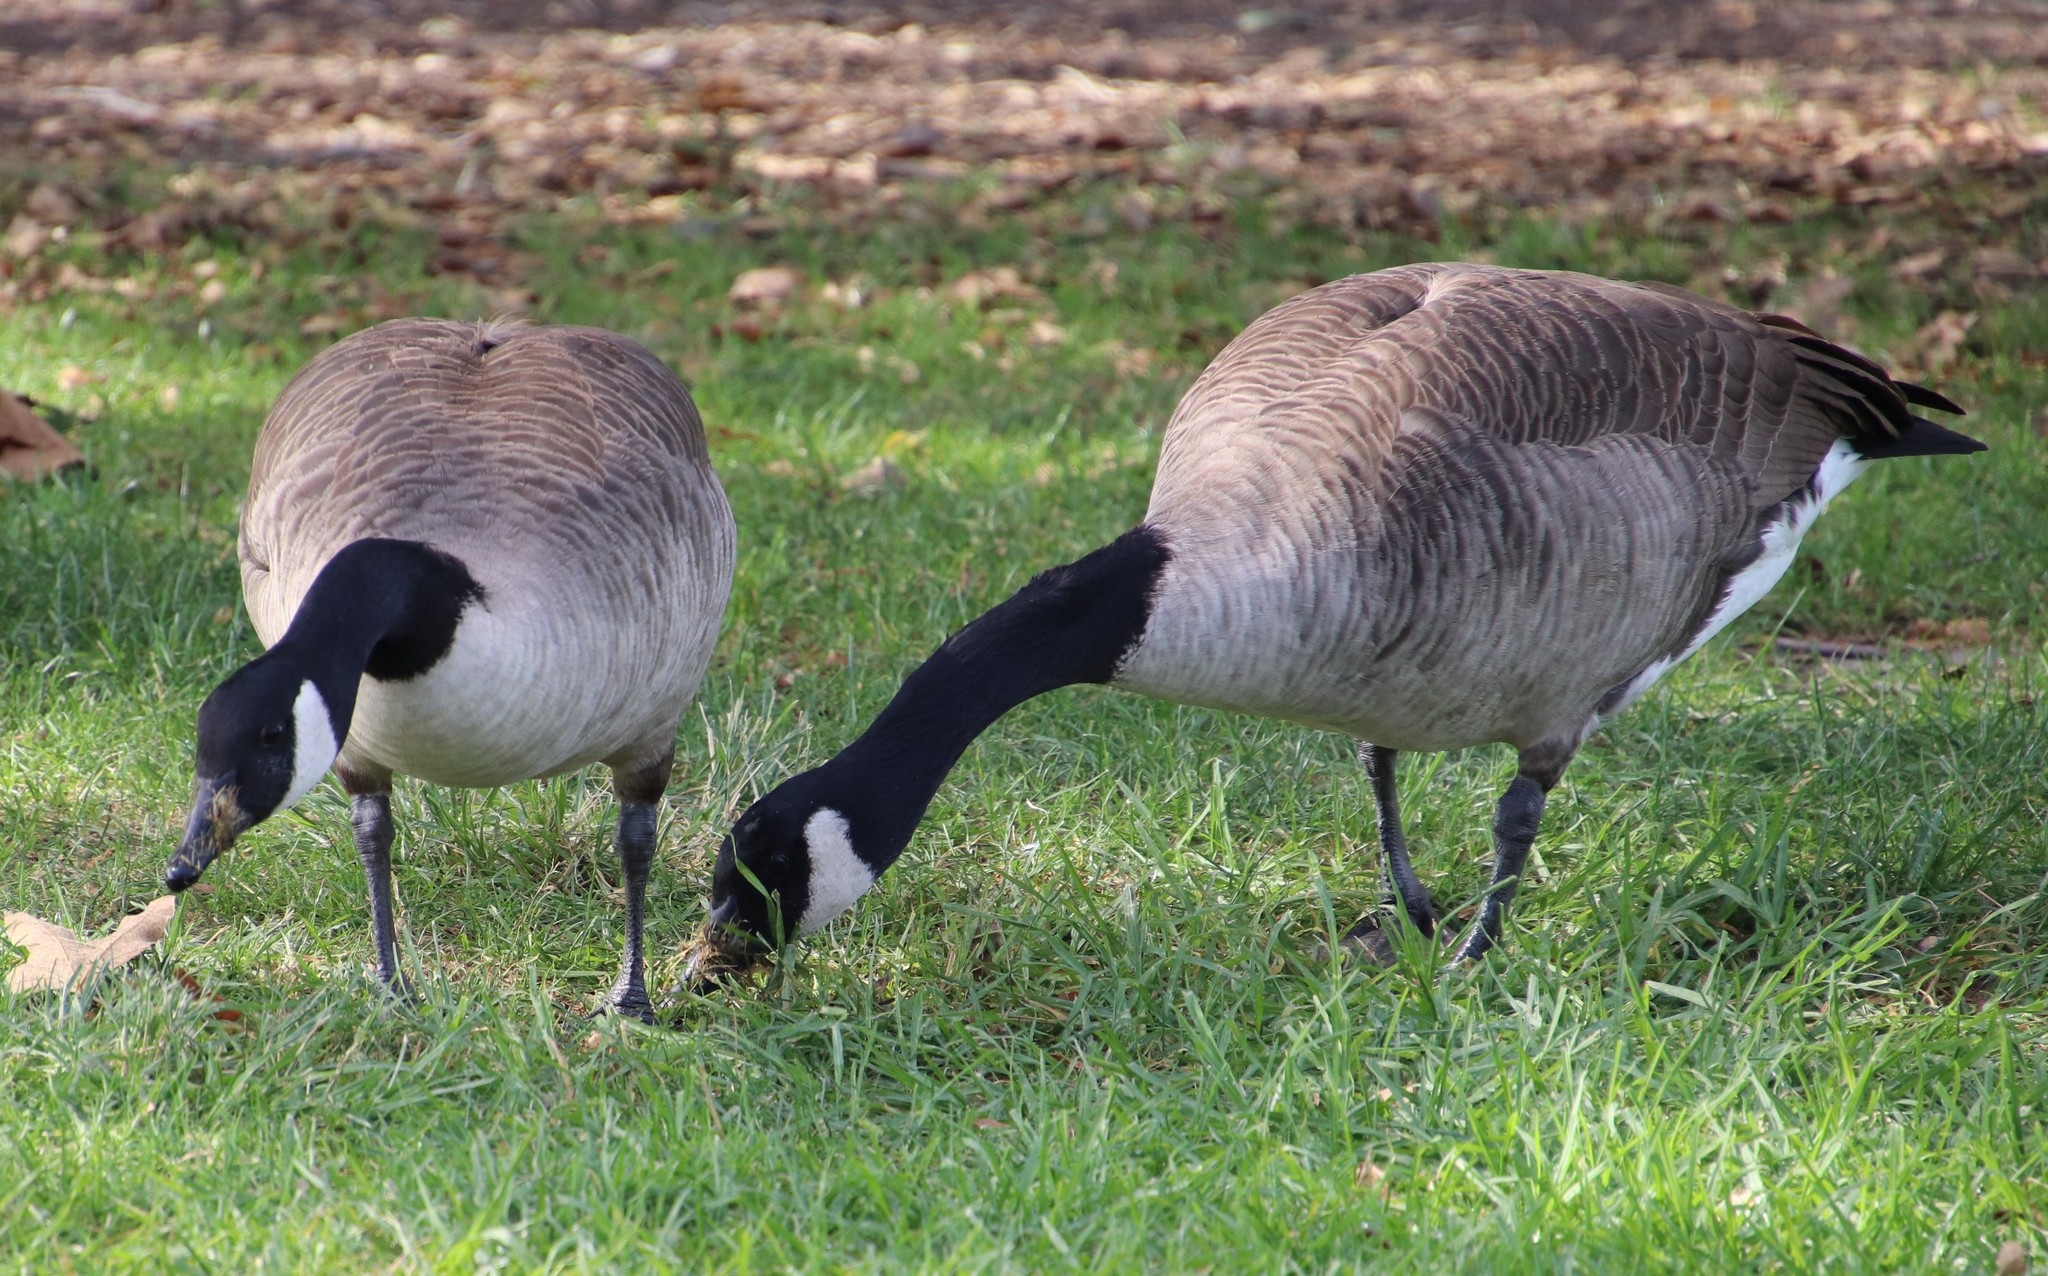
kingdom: Animalia
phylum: Chordata
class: Aves
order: Anseriformes
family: Anatidae
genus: Branta
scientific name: Branta canadensis
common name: Canada goose
